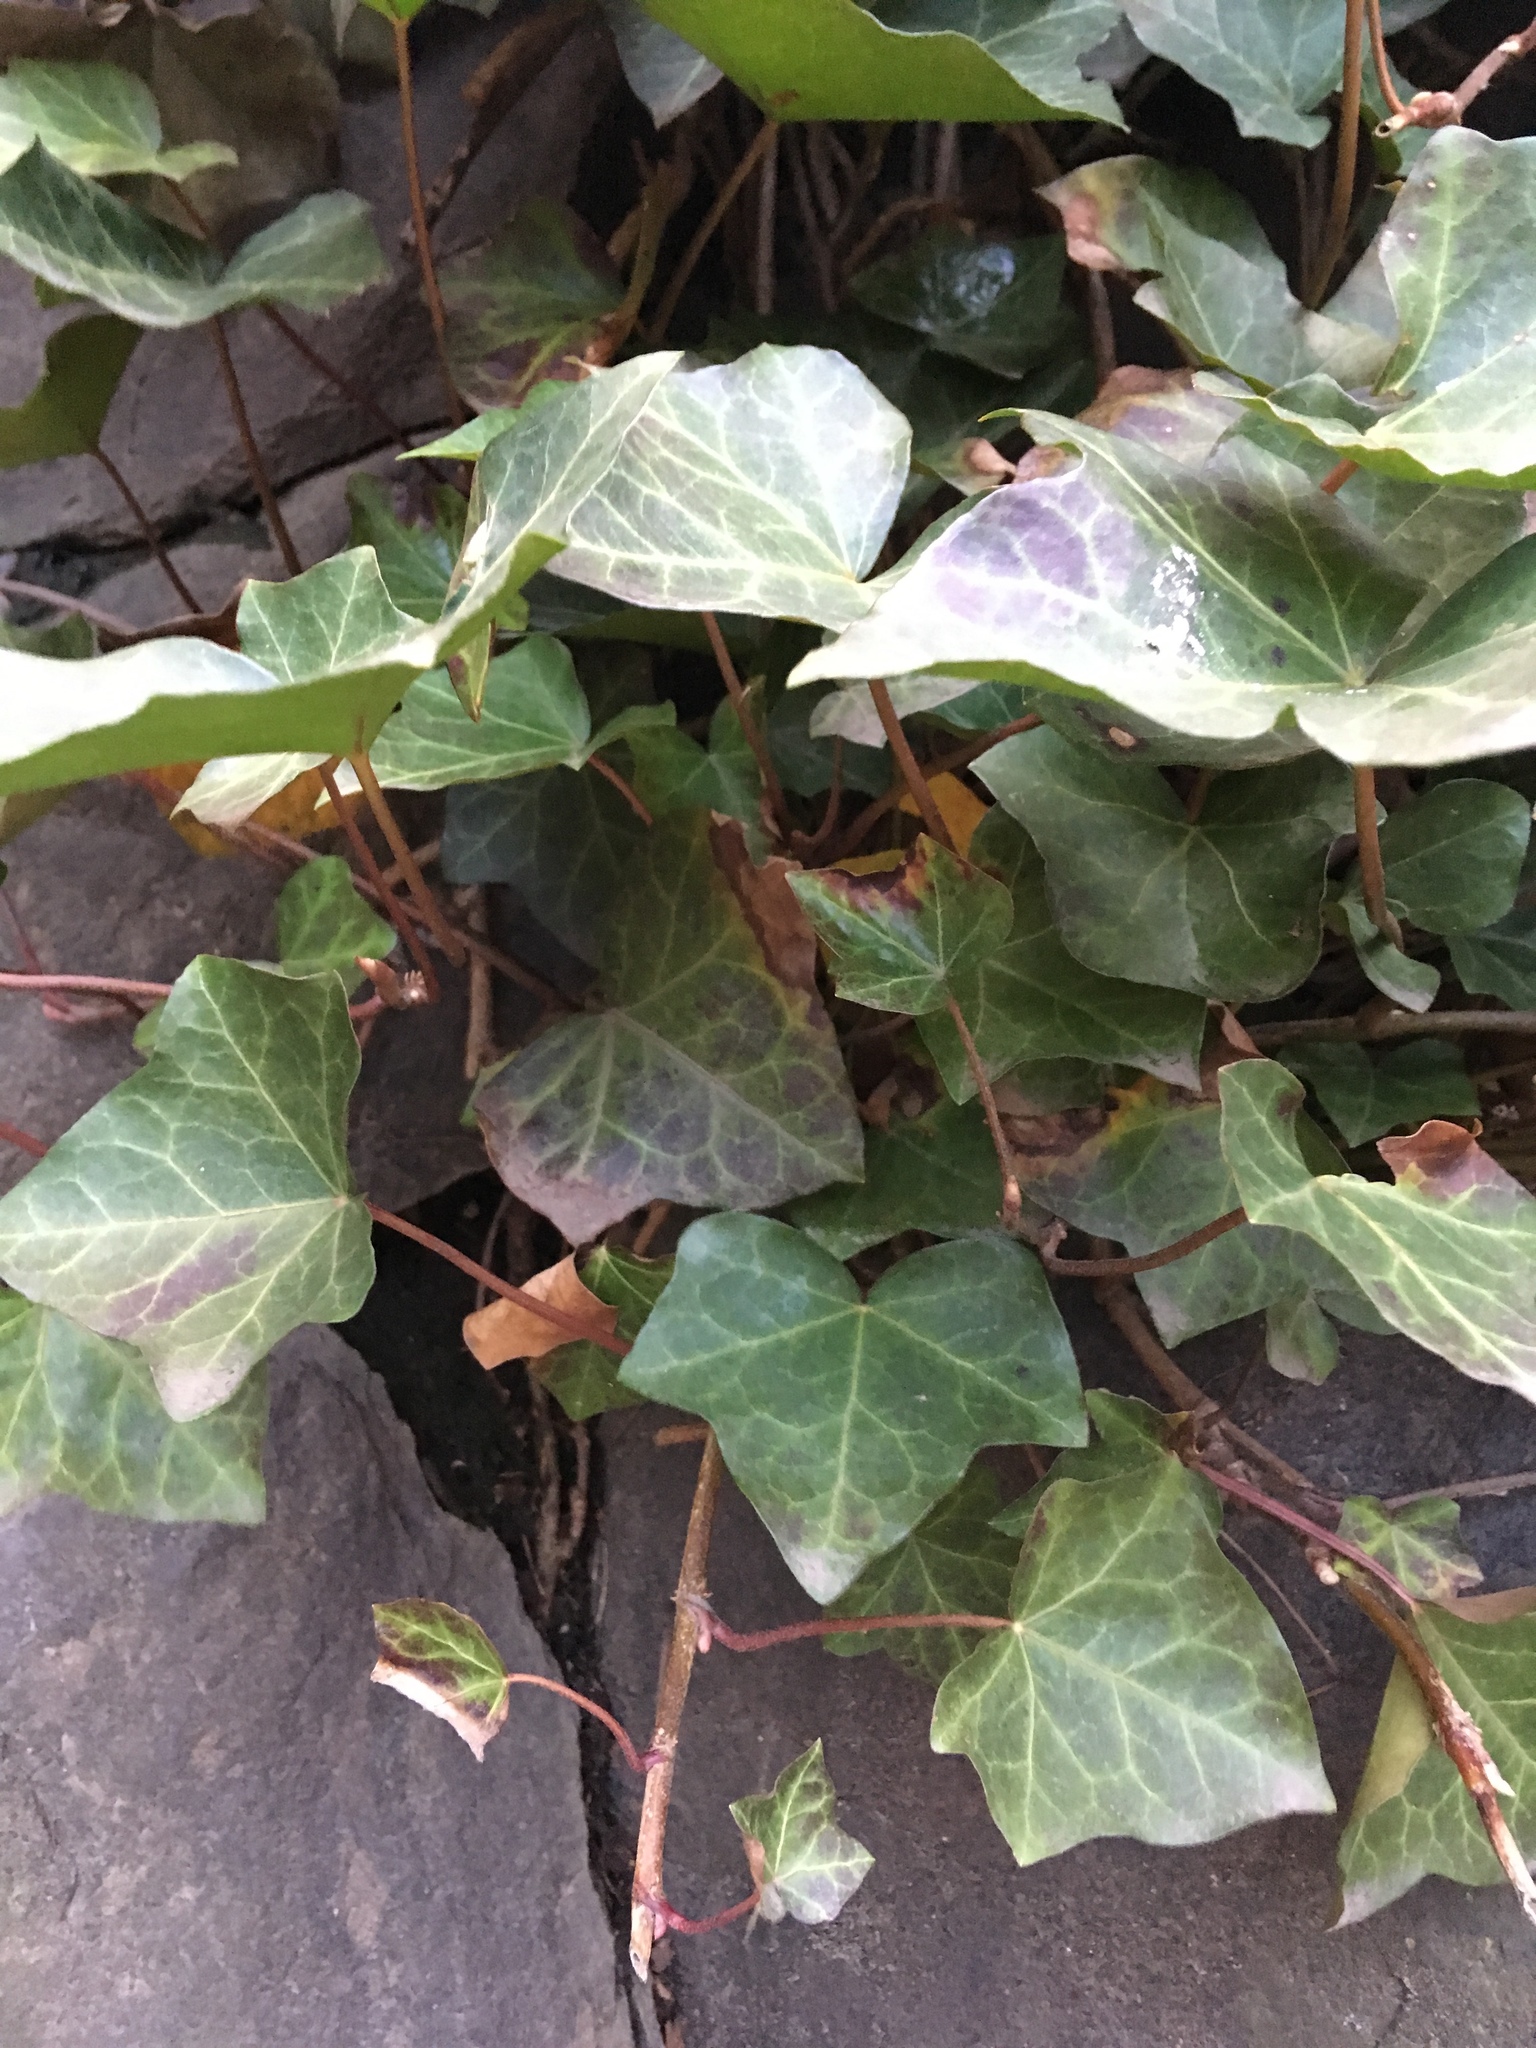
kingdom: Plantae
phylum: Tracheophyta
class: Magnoliopsida
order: Apiales
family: Araliaceae
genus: Hedera
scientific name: Hedera helix
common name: Ivy
